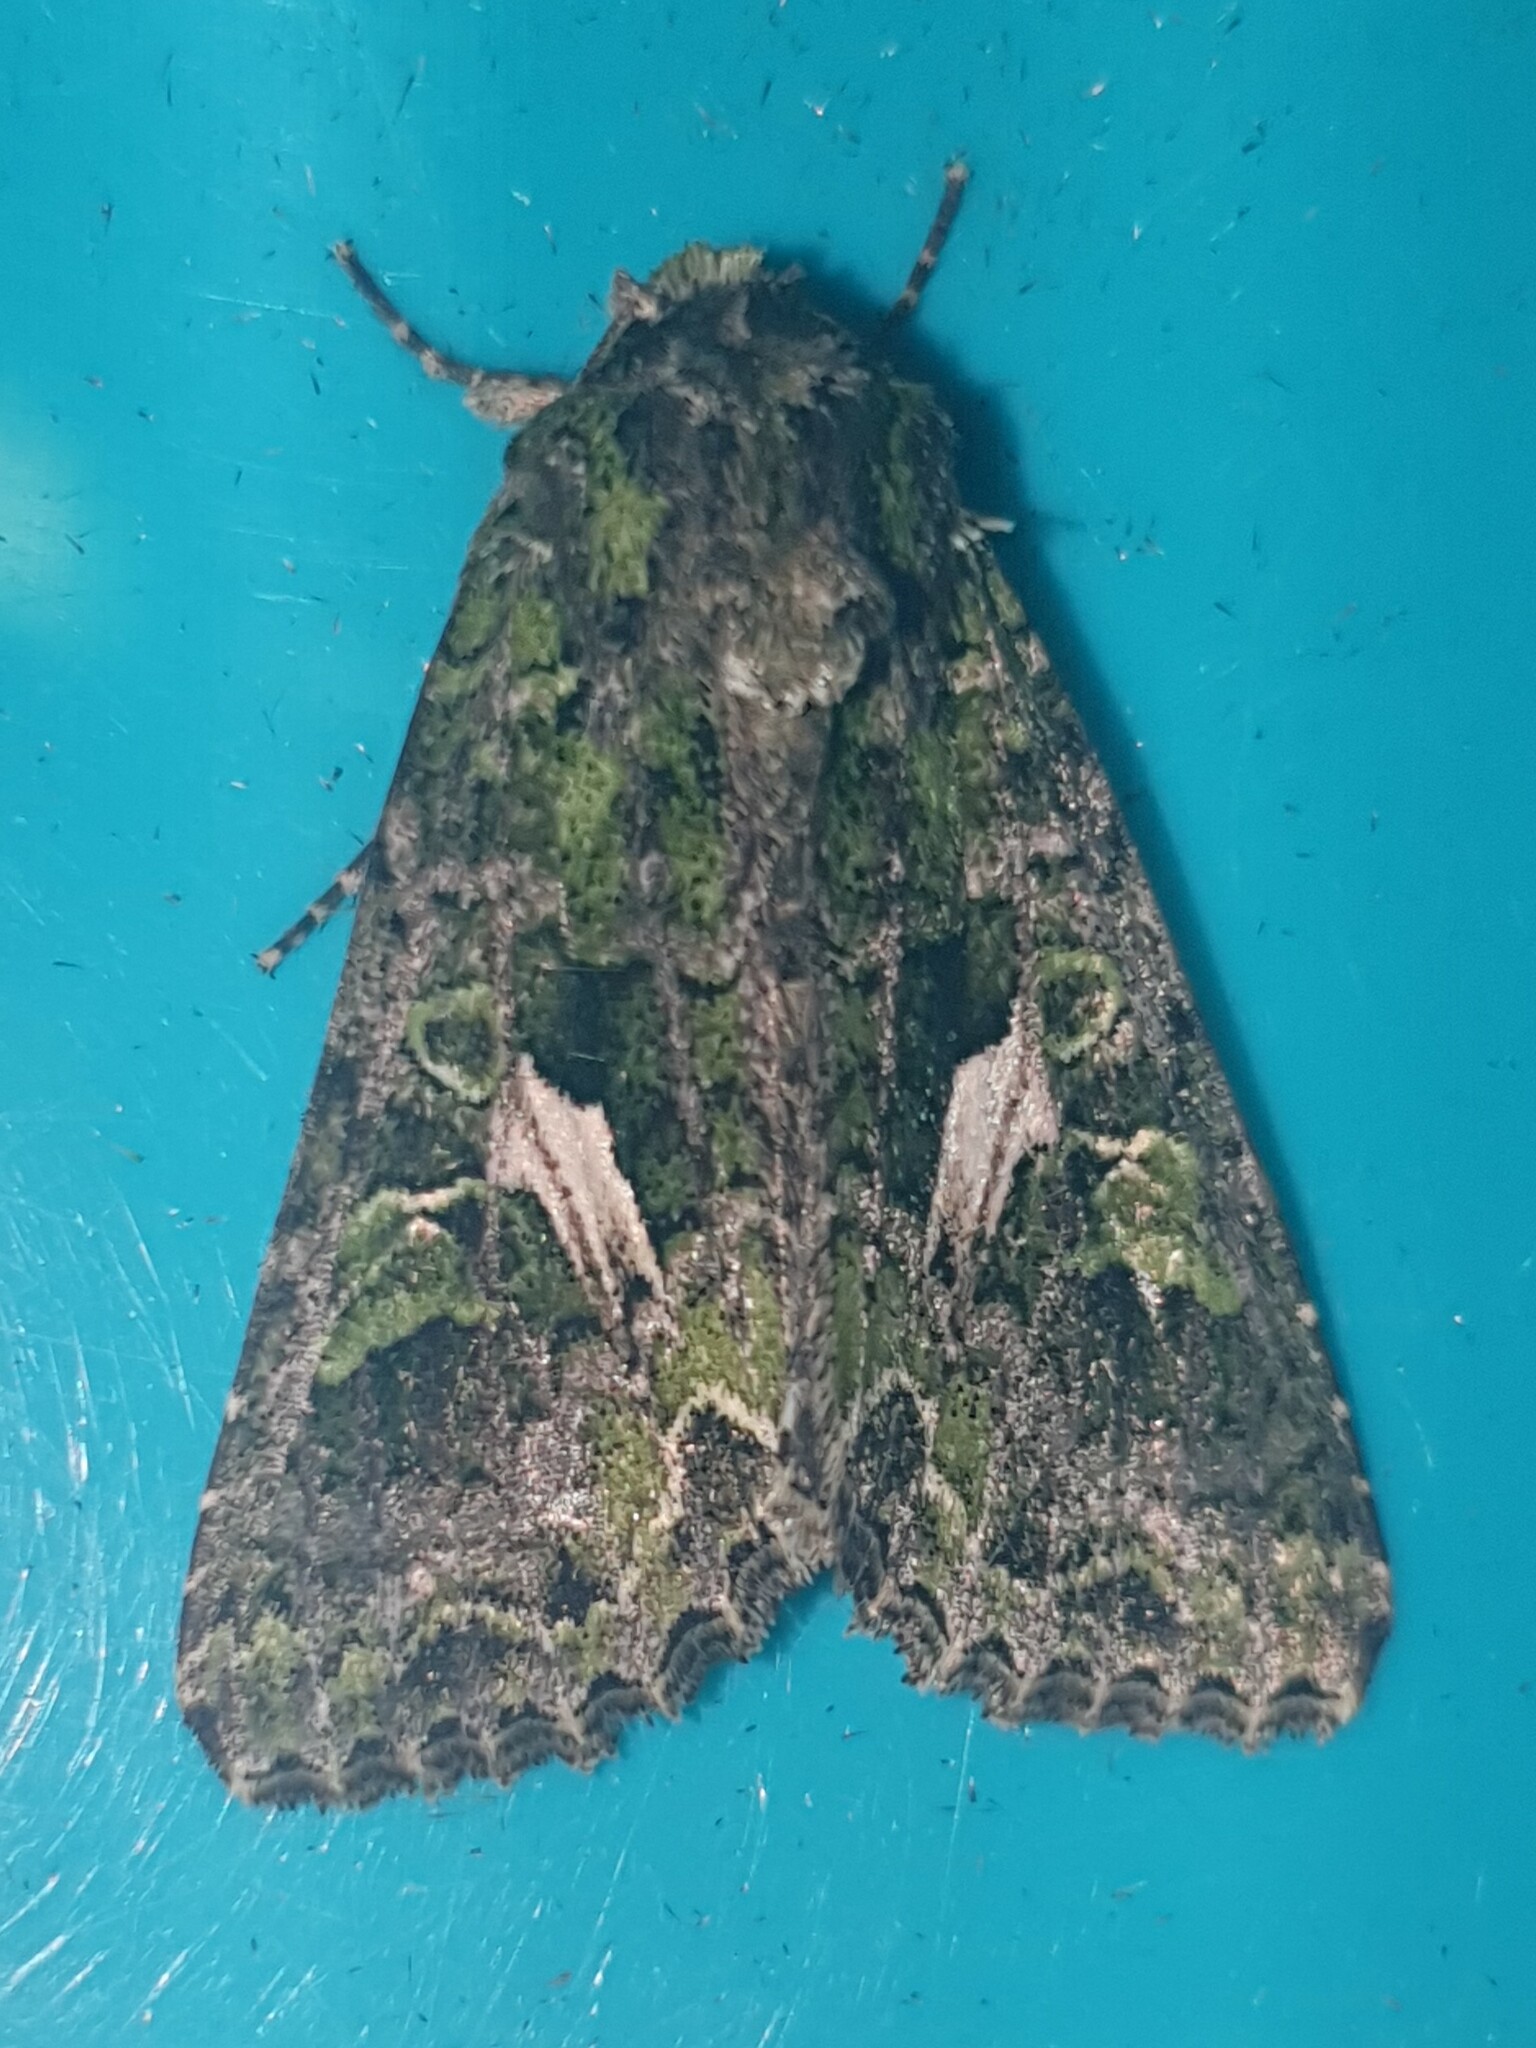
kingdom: Animalia
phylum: Arthropoda
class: Insecta
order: Lepidoptera
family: Noctuidae
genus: Trachea
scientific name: Trachea atriplicis
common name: Orache moth
